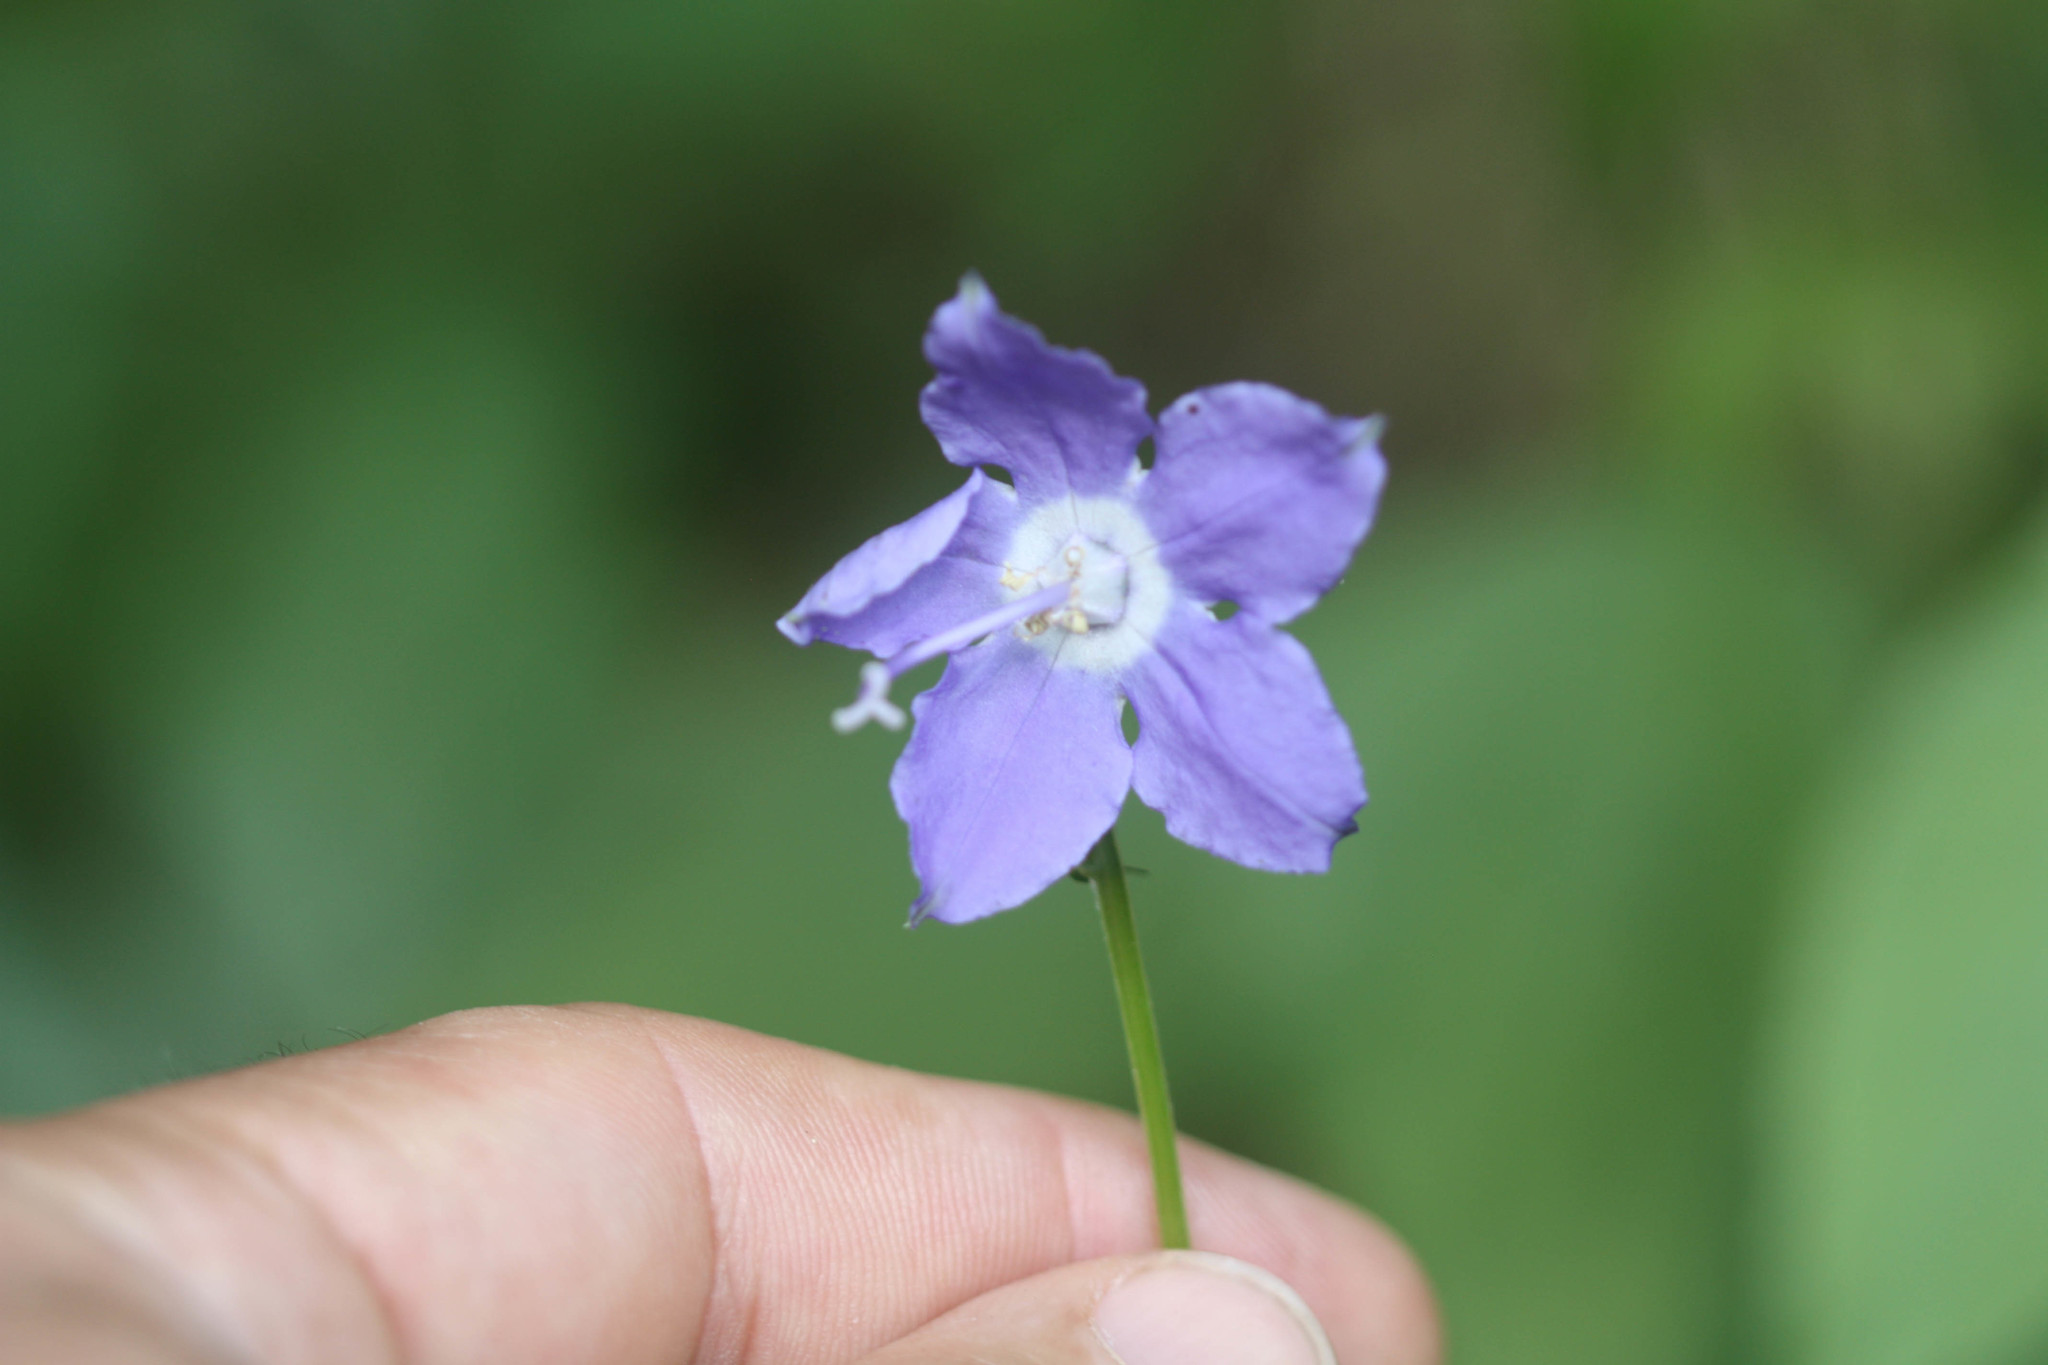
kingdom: Plantae
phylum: Tracheophyta
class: Magnoliopsida
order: Asterales
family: Campanulaceae
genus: Campanulastrum
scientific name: Campanulastrum americanum
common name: American bellflower
